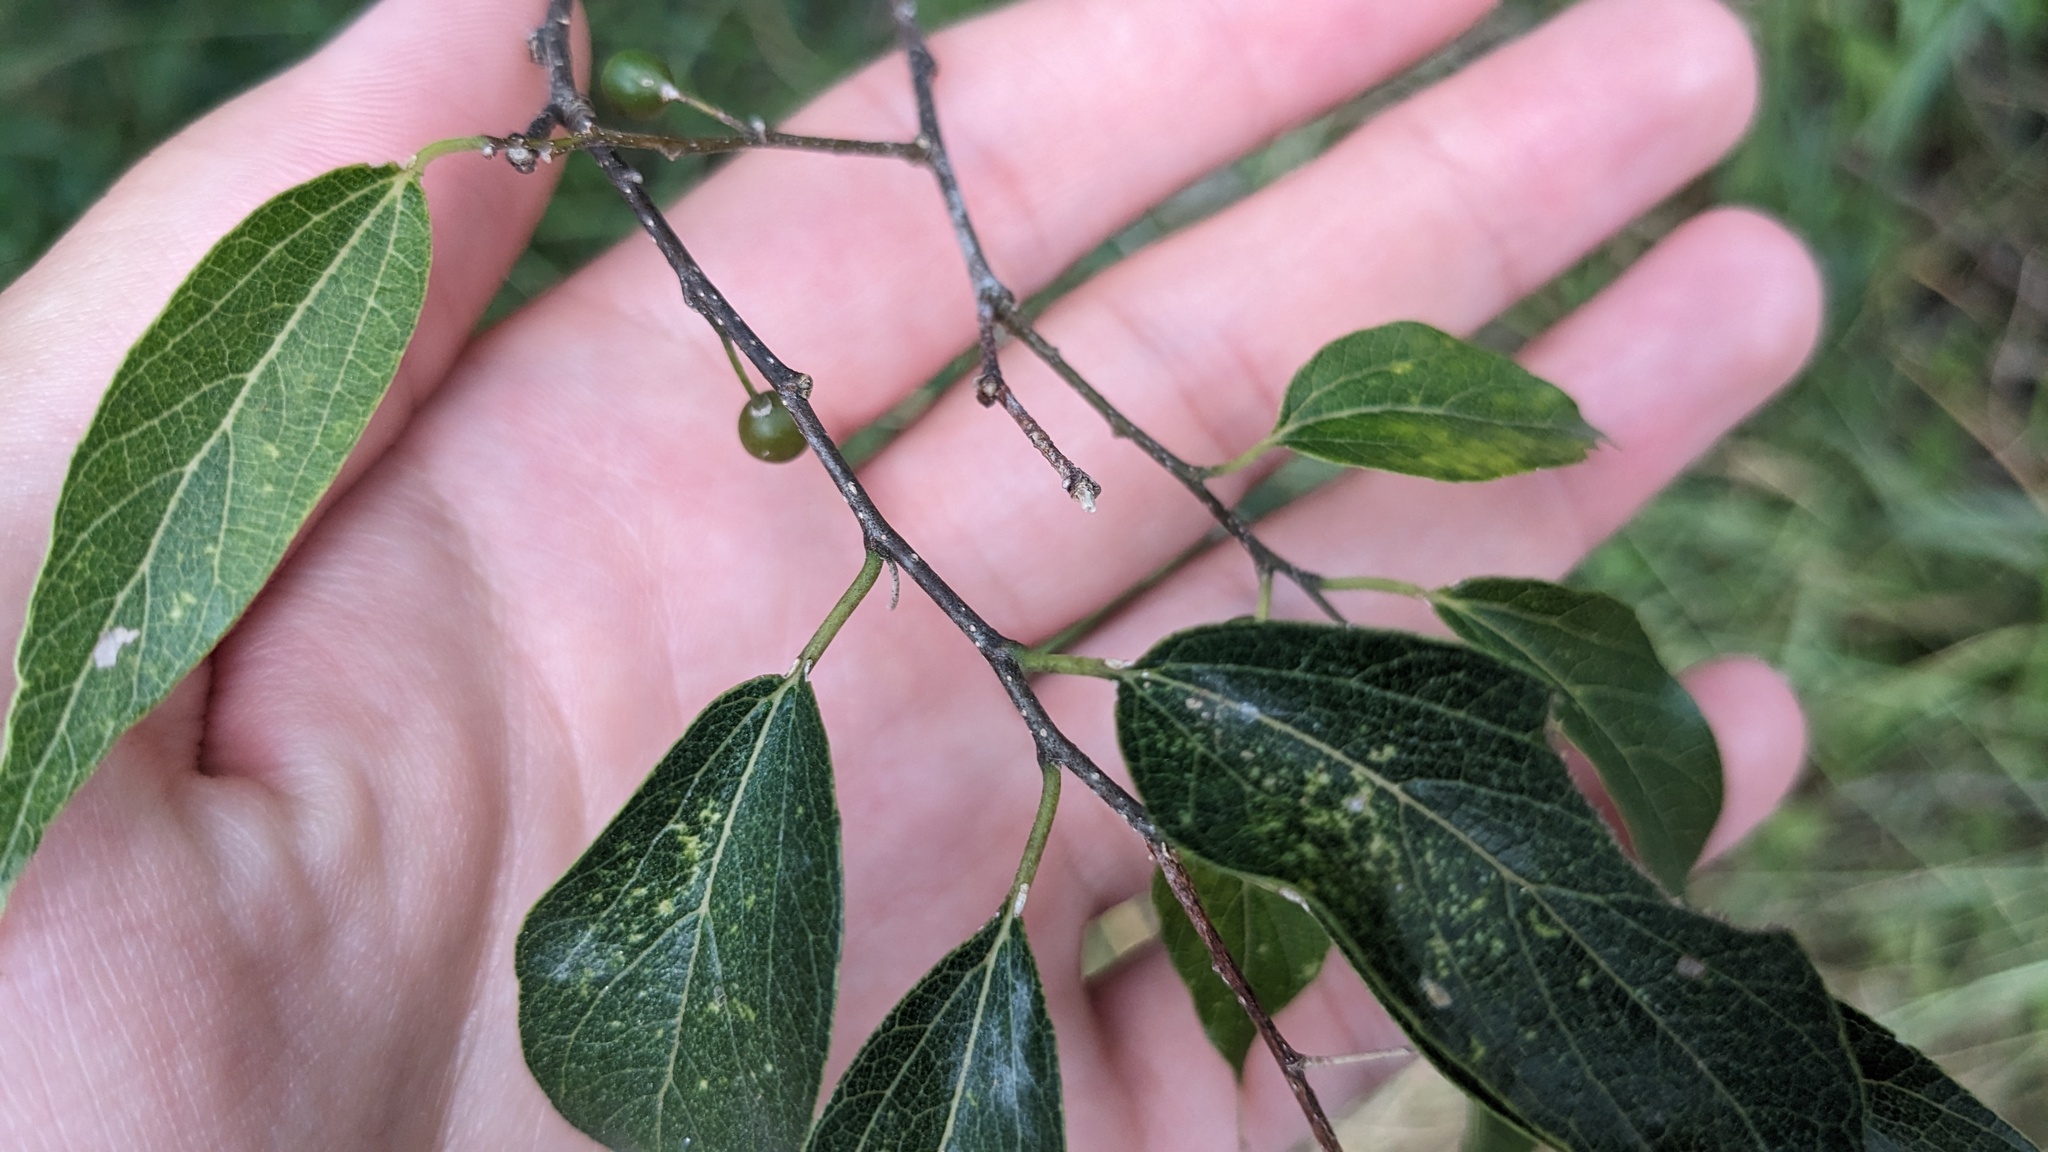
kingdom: Plantae
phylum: Tracheophyta
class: Magnoliopsida
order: Rosales
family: Cannabaceae
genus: Celtis
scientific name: Celtis laevigata
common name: Sugarberry
